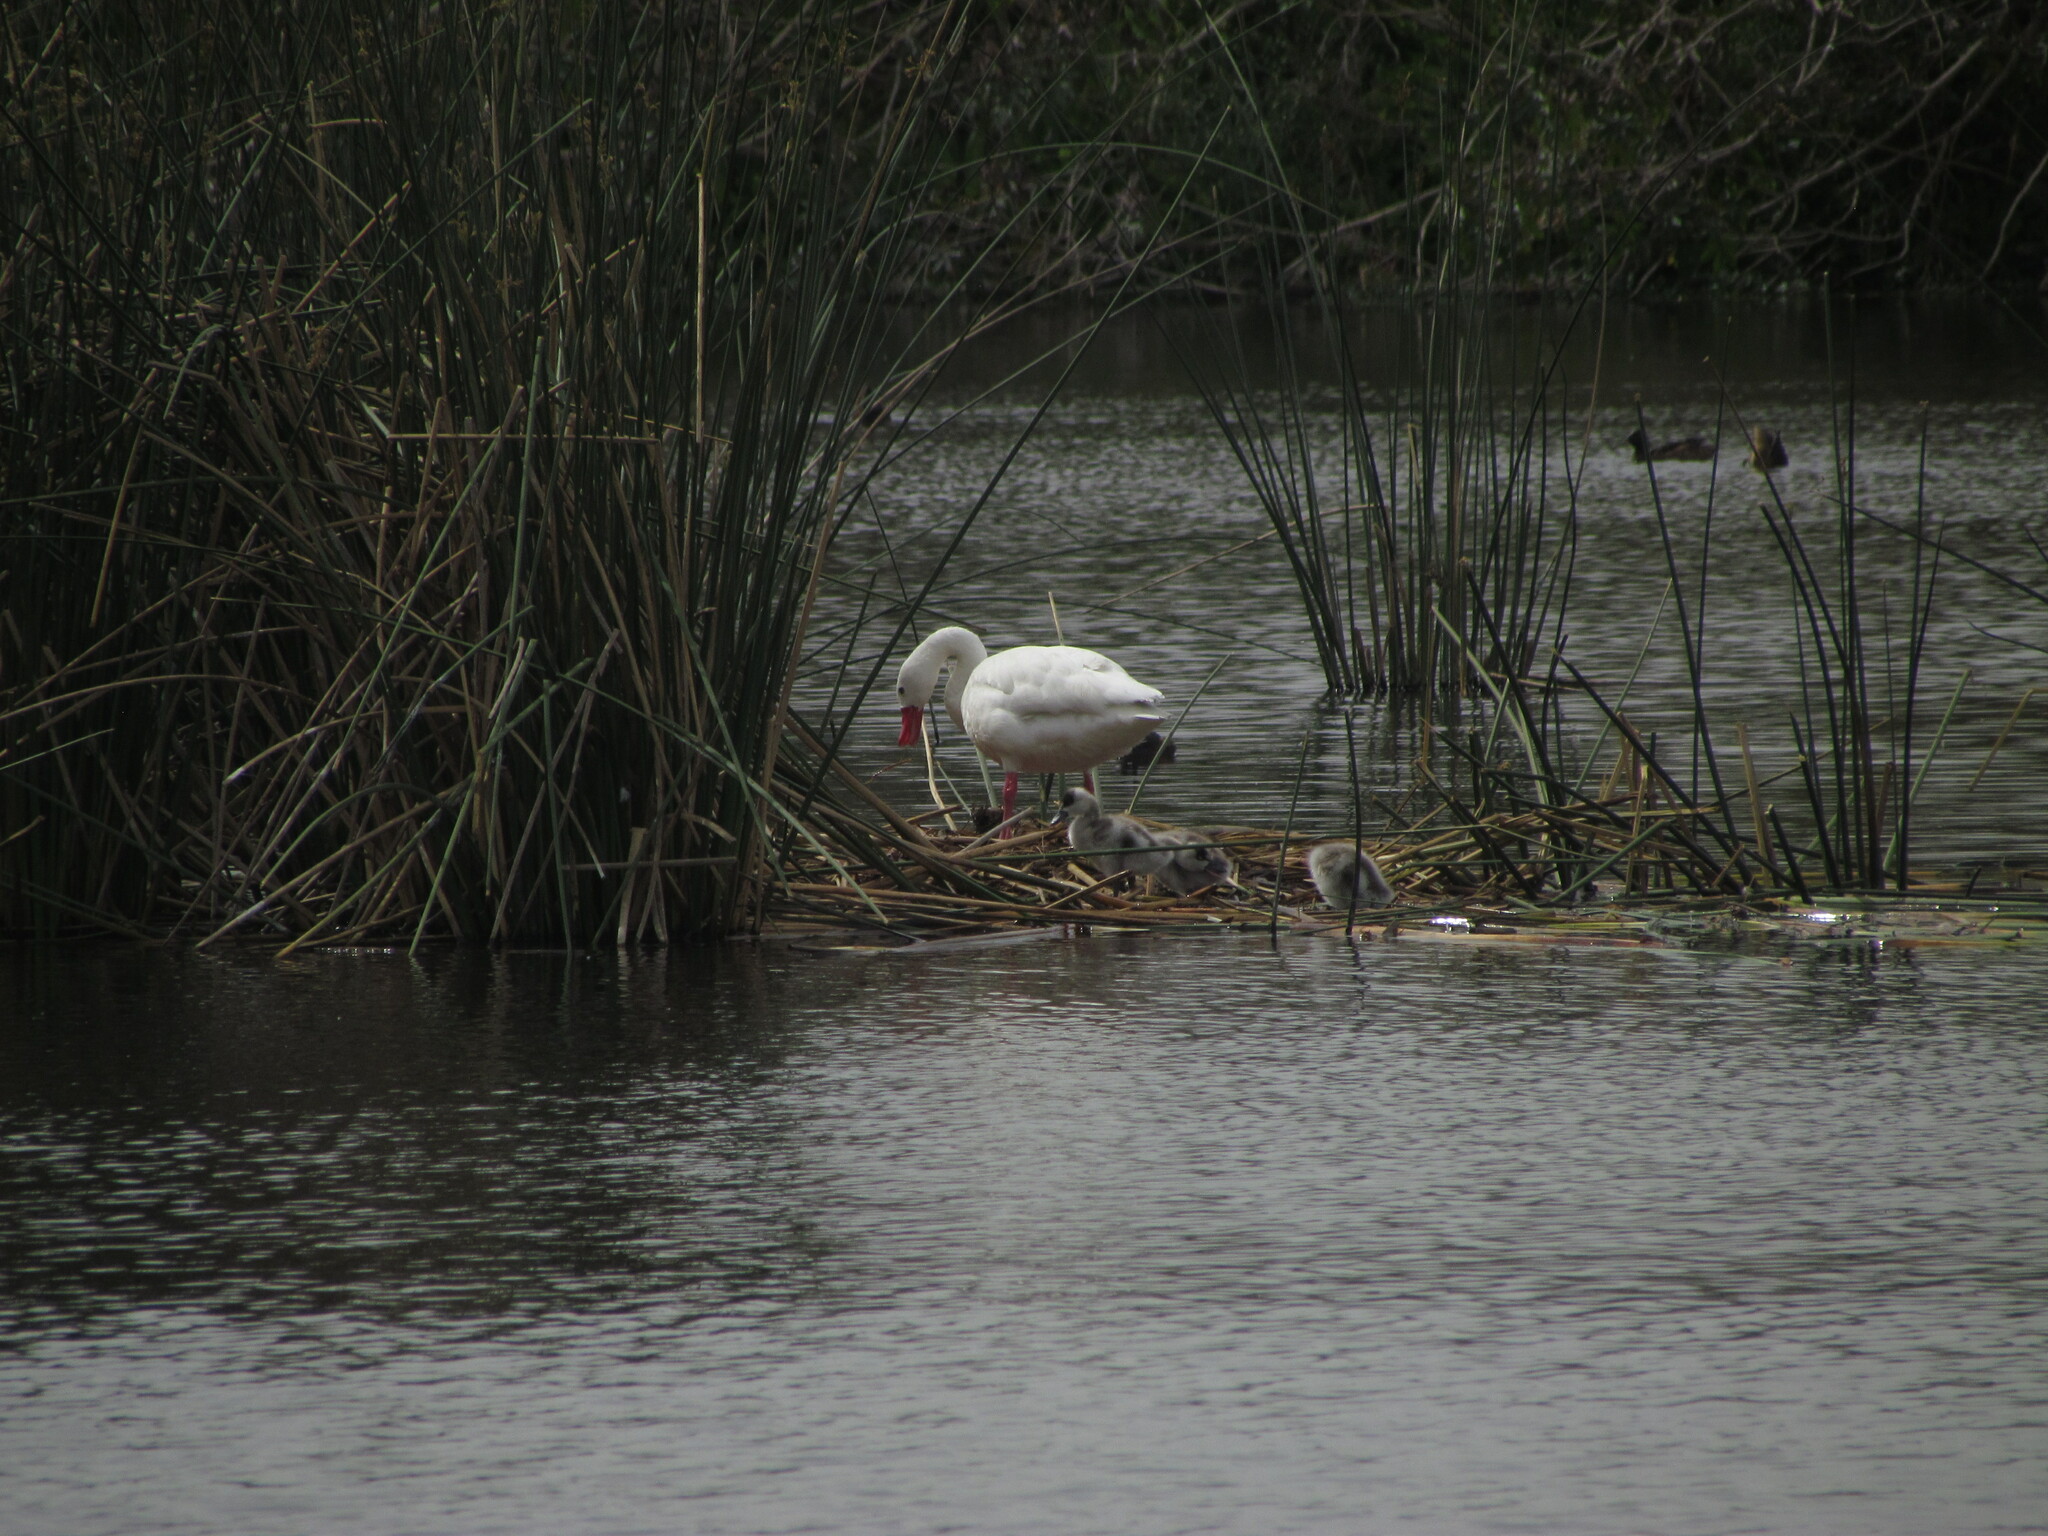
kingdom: Animalia
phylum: Chordata
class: Aves
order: Anseriformes
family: Anatidae
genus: Coscoroba
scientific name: Coscoroba coscoroba
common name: Coscoroba swan
